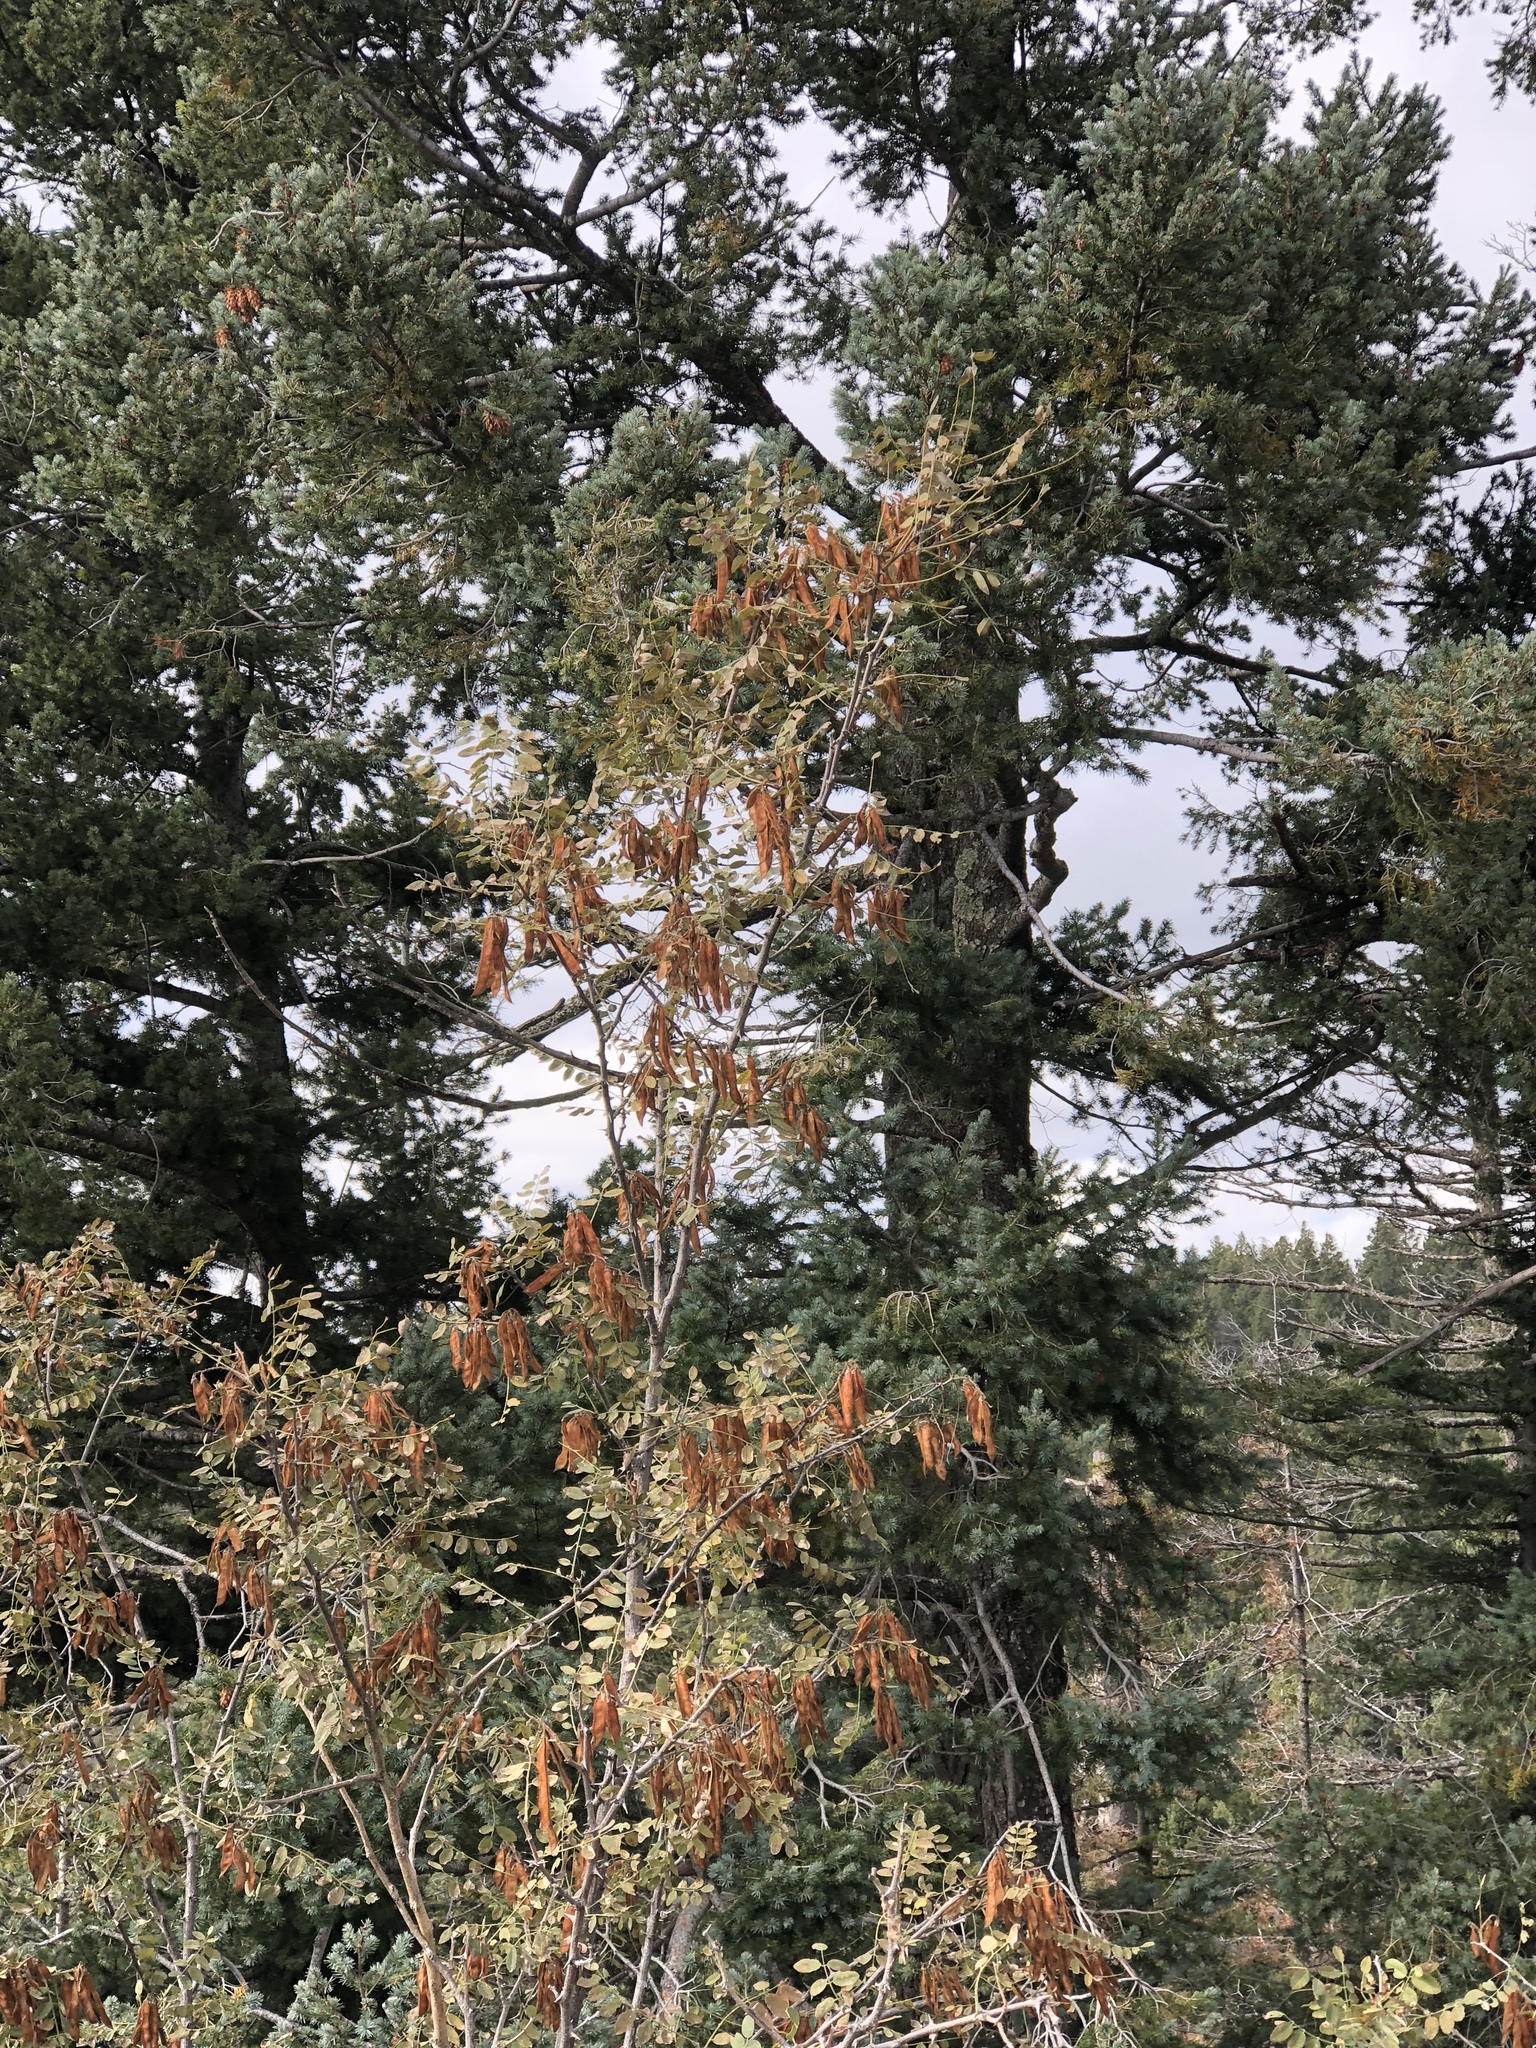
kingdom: Plantae
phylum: Tracheophyta
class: Magnoliopsida
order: Fabales
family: Fabaceae
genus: Robinia
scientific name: Robinia neomexicana
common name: New mexico locust
